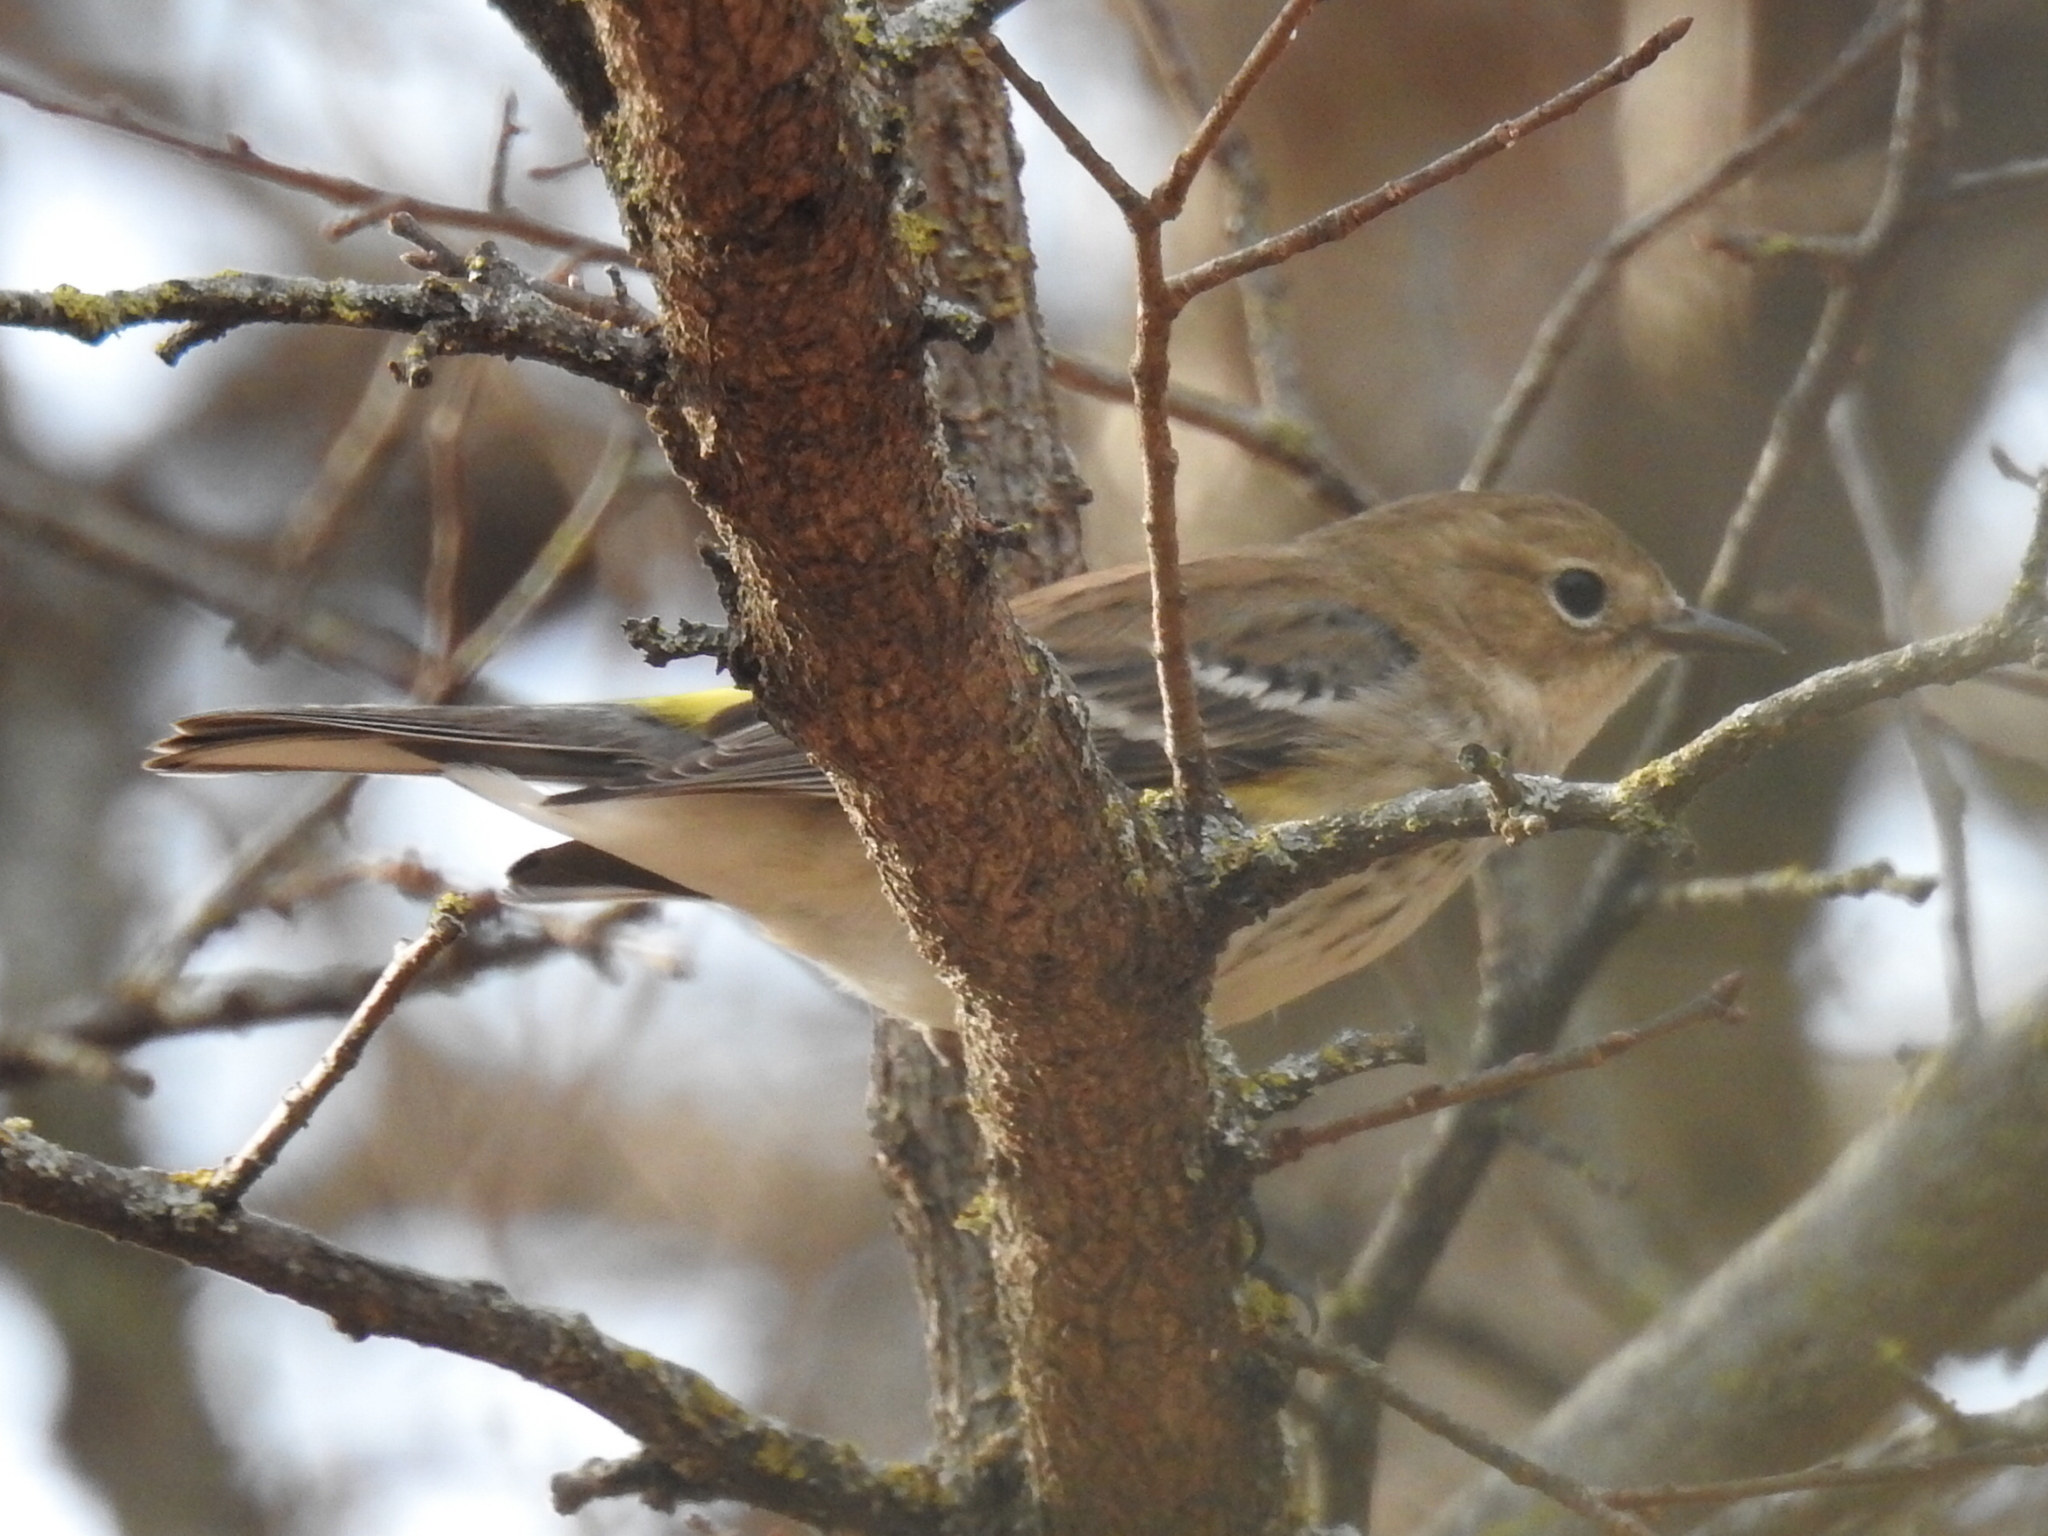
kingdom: Animalia
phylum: Chordata
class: Aves
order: Passeriformes
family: Parulidae
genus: Setophaga
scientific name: Setophaga coronata
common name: Myrtle warbler
